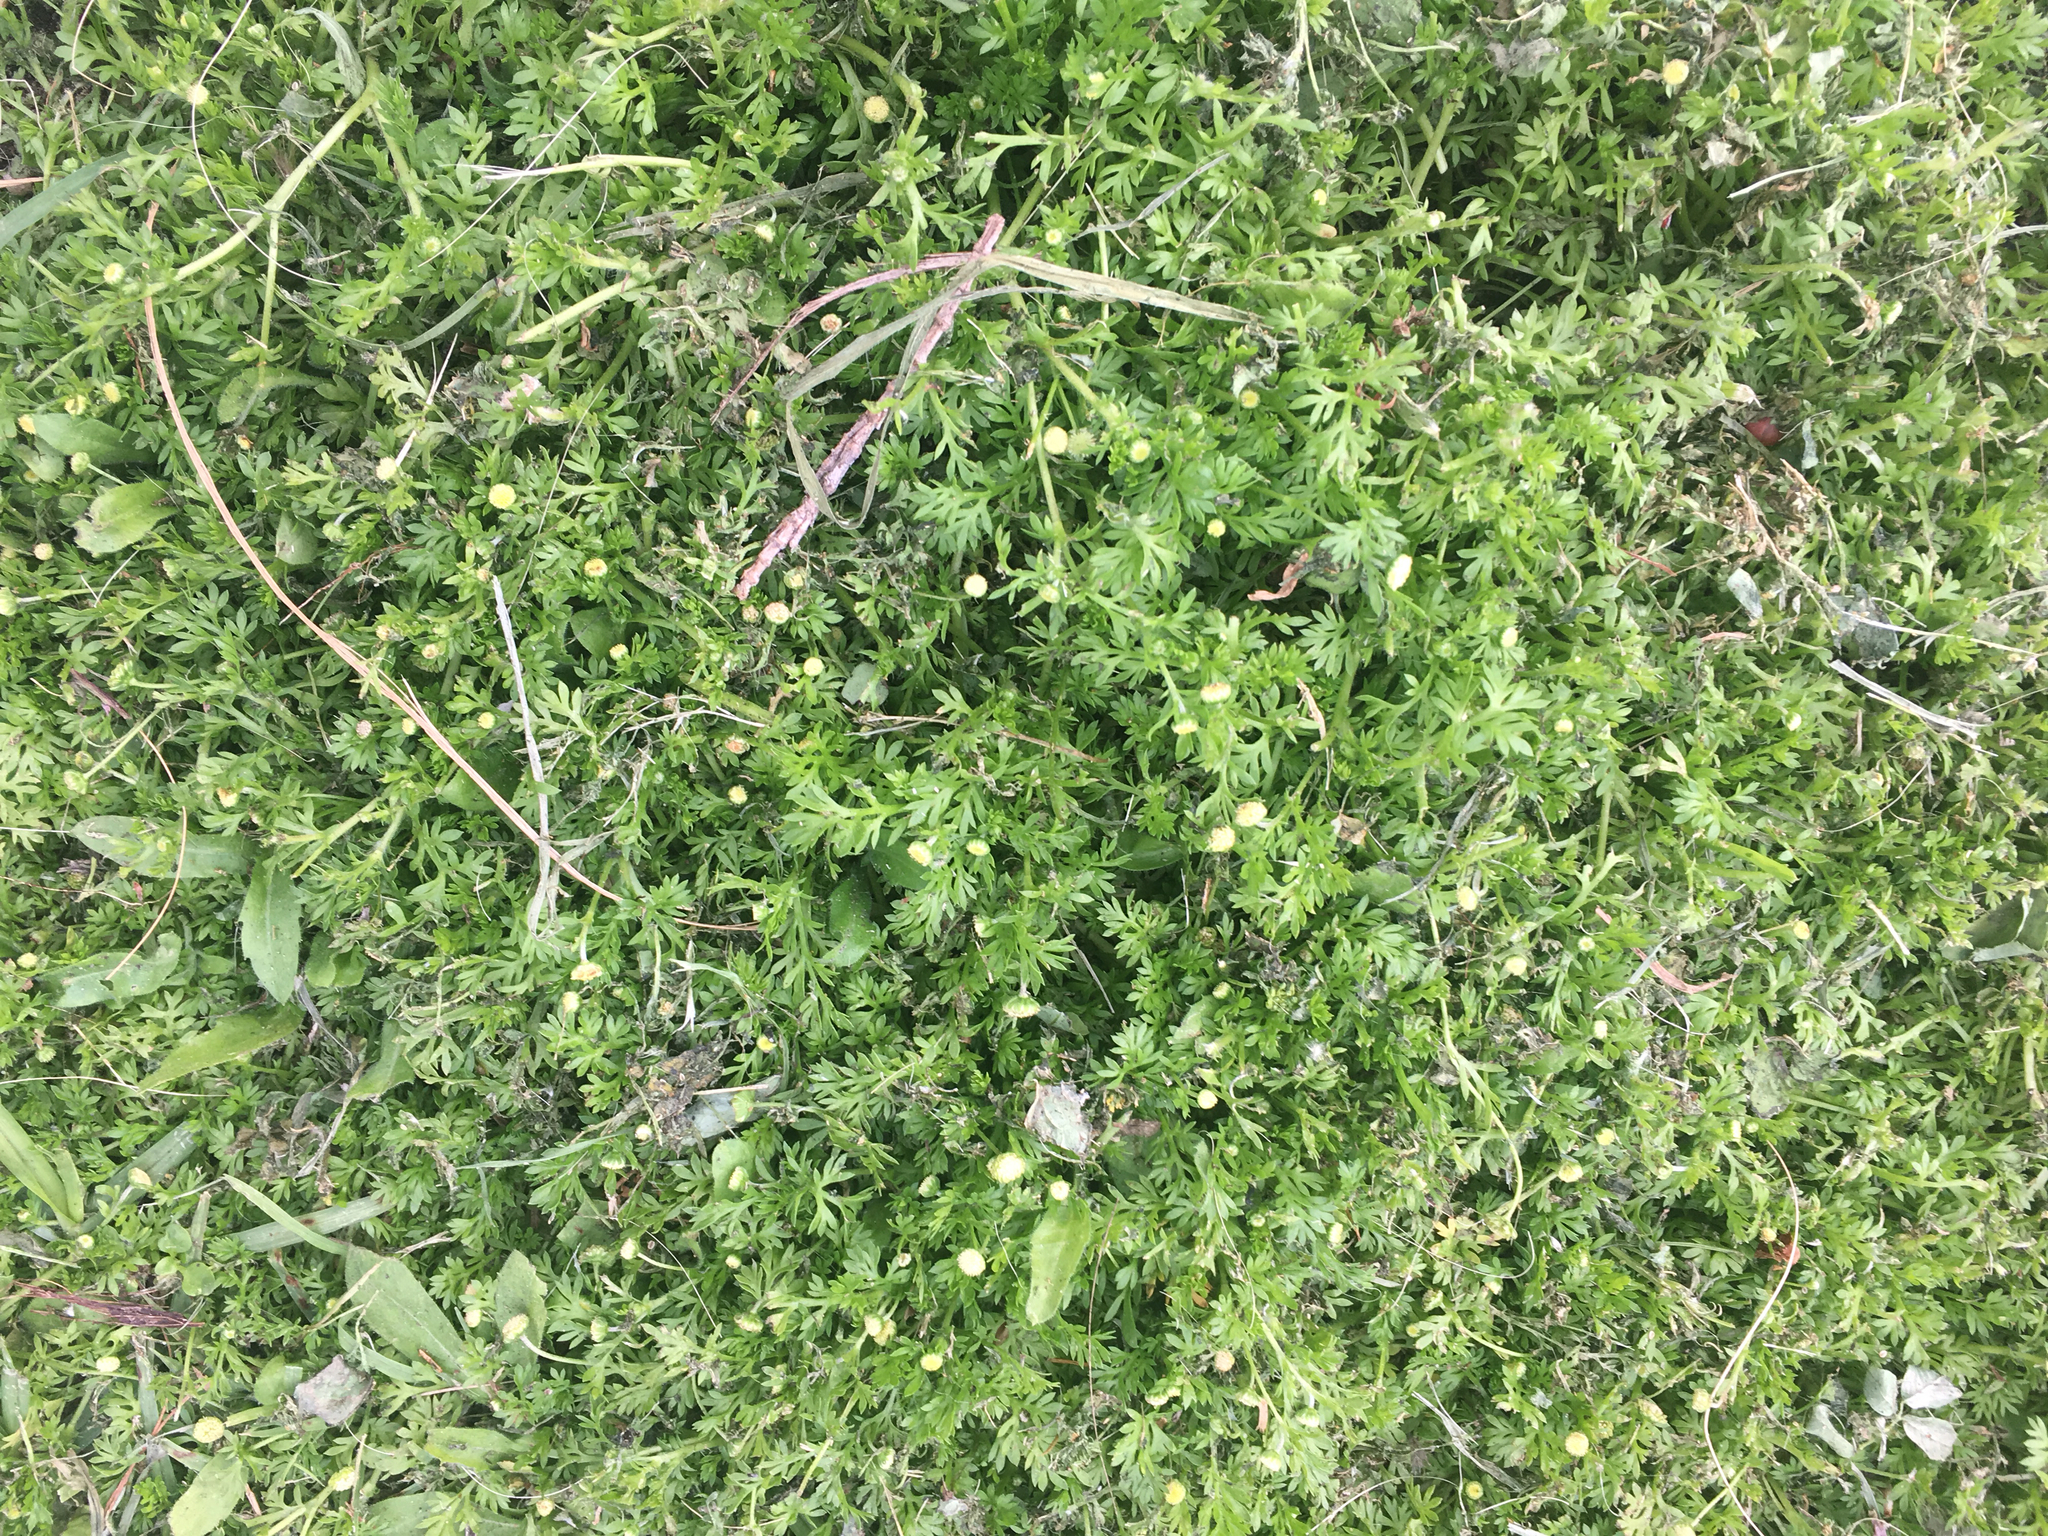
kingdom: Plantae
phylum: Tracheophyta
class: Magnoliopsida
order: Asterales
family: Asteraceae
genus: Cotula
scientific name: Cotula australis
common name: Australian waterbuttons
